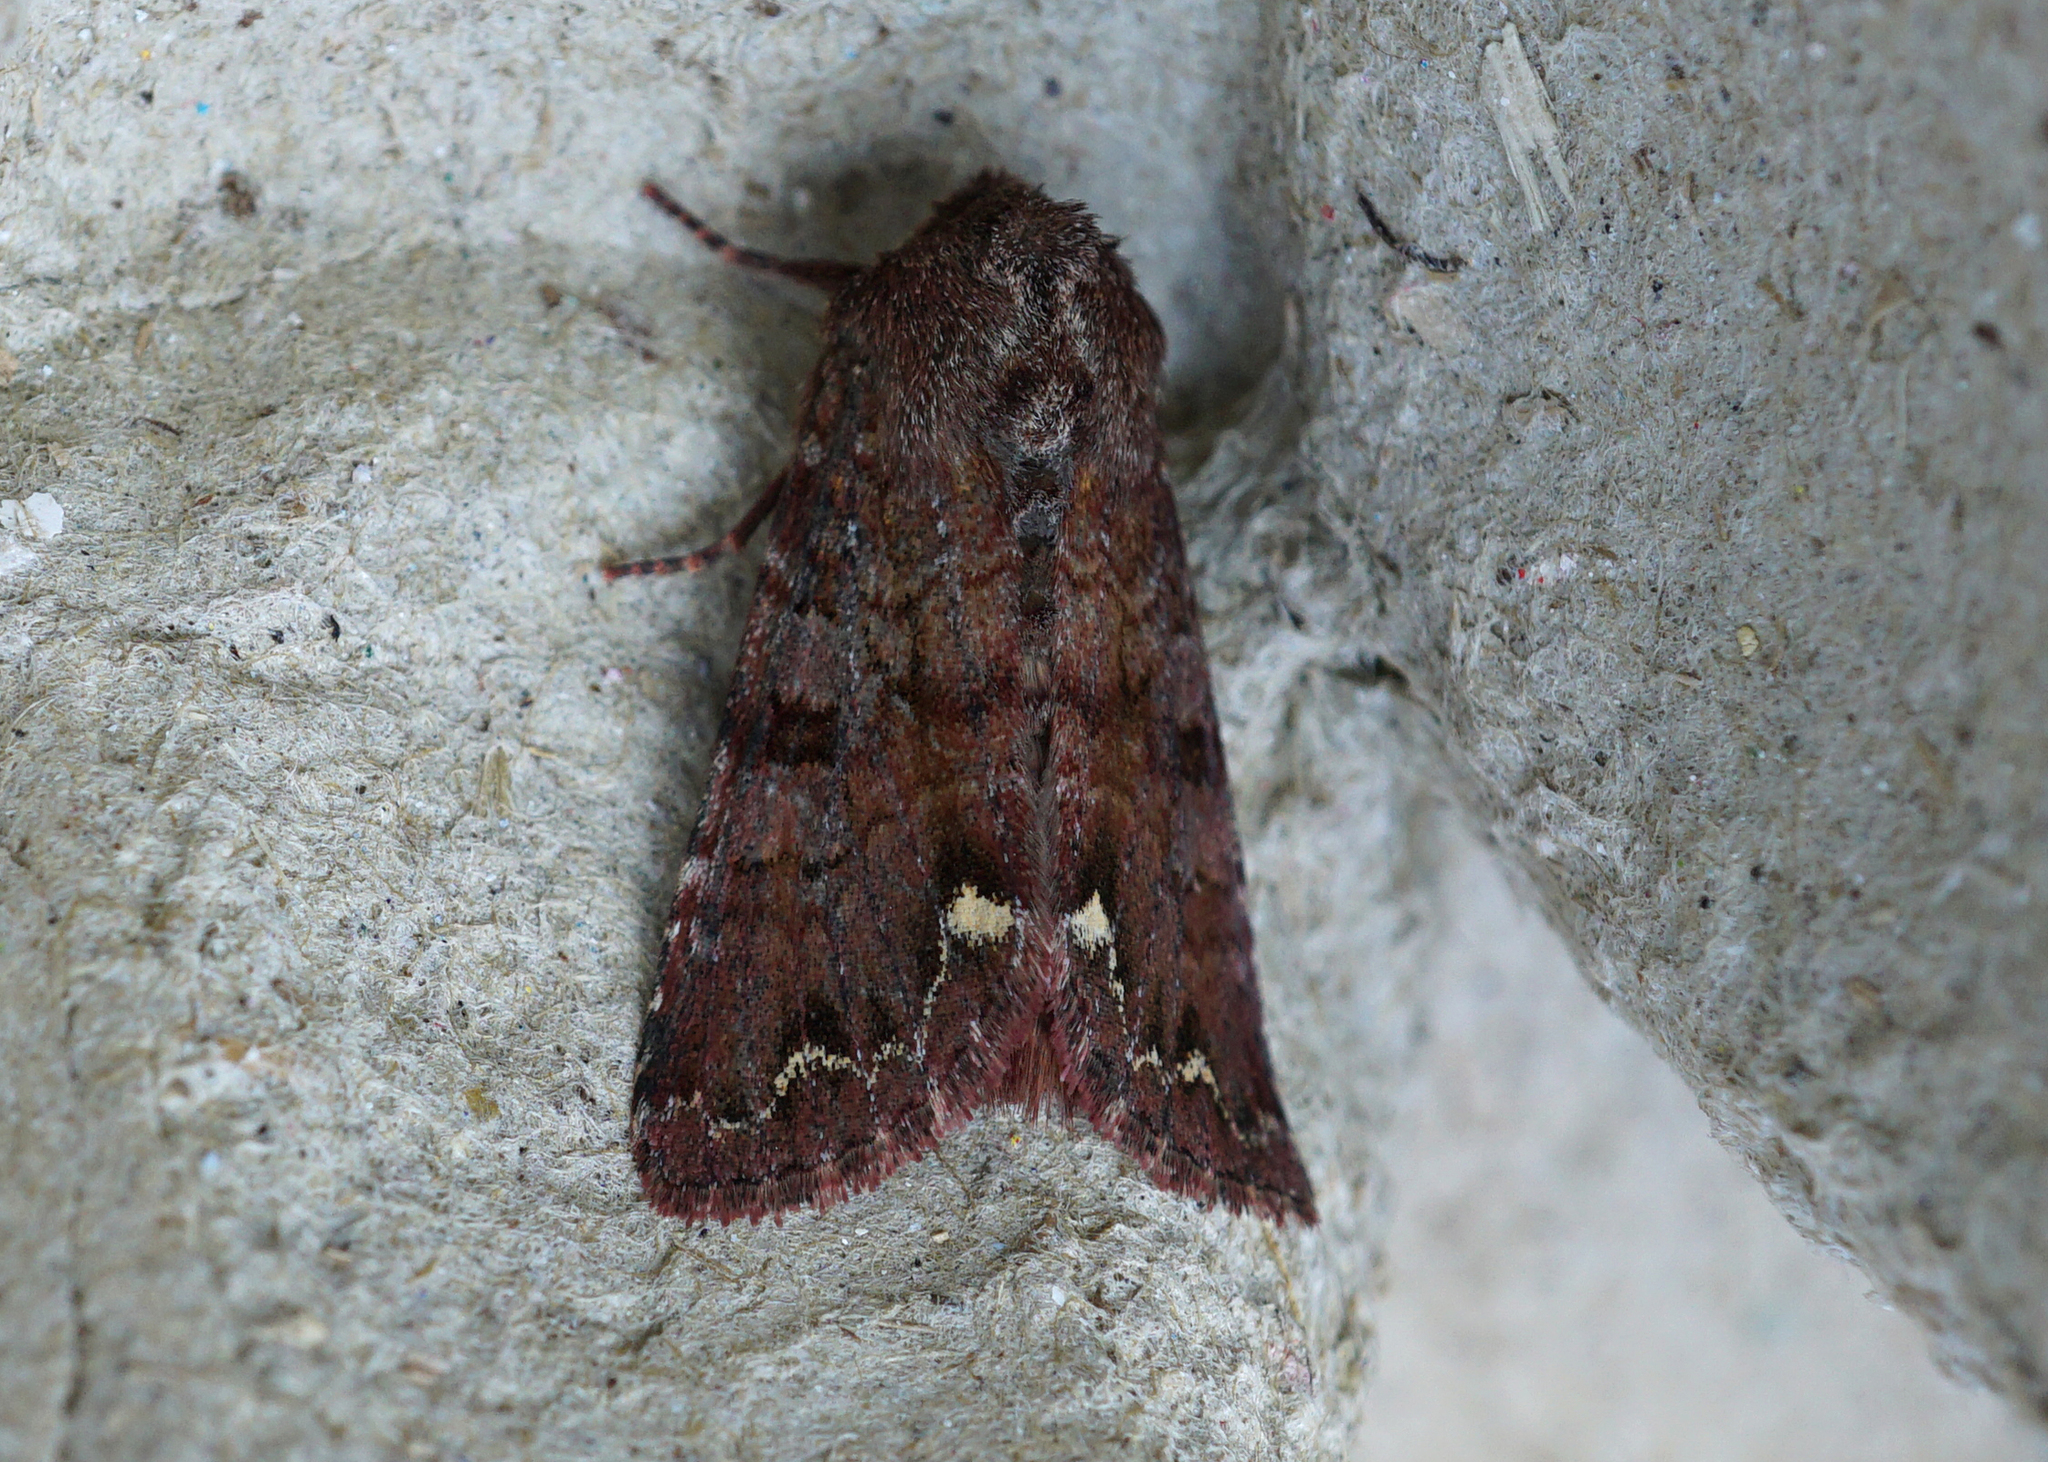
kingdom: Animalia
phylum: Arthropoda
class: Insecta
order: Lepidoptera
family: Noctuidae
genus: Ceramica
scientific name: Ceramica pisi
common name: Broom moth
